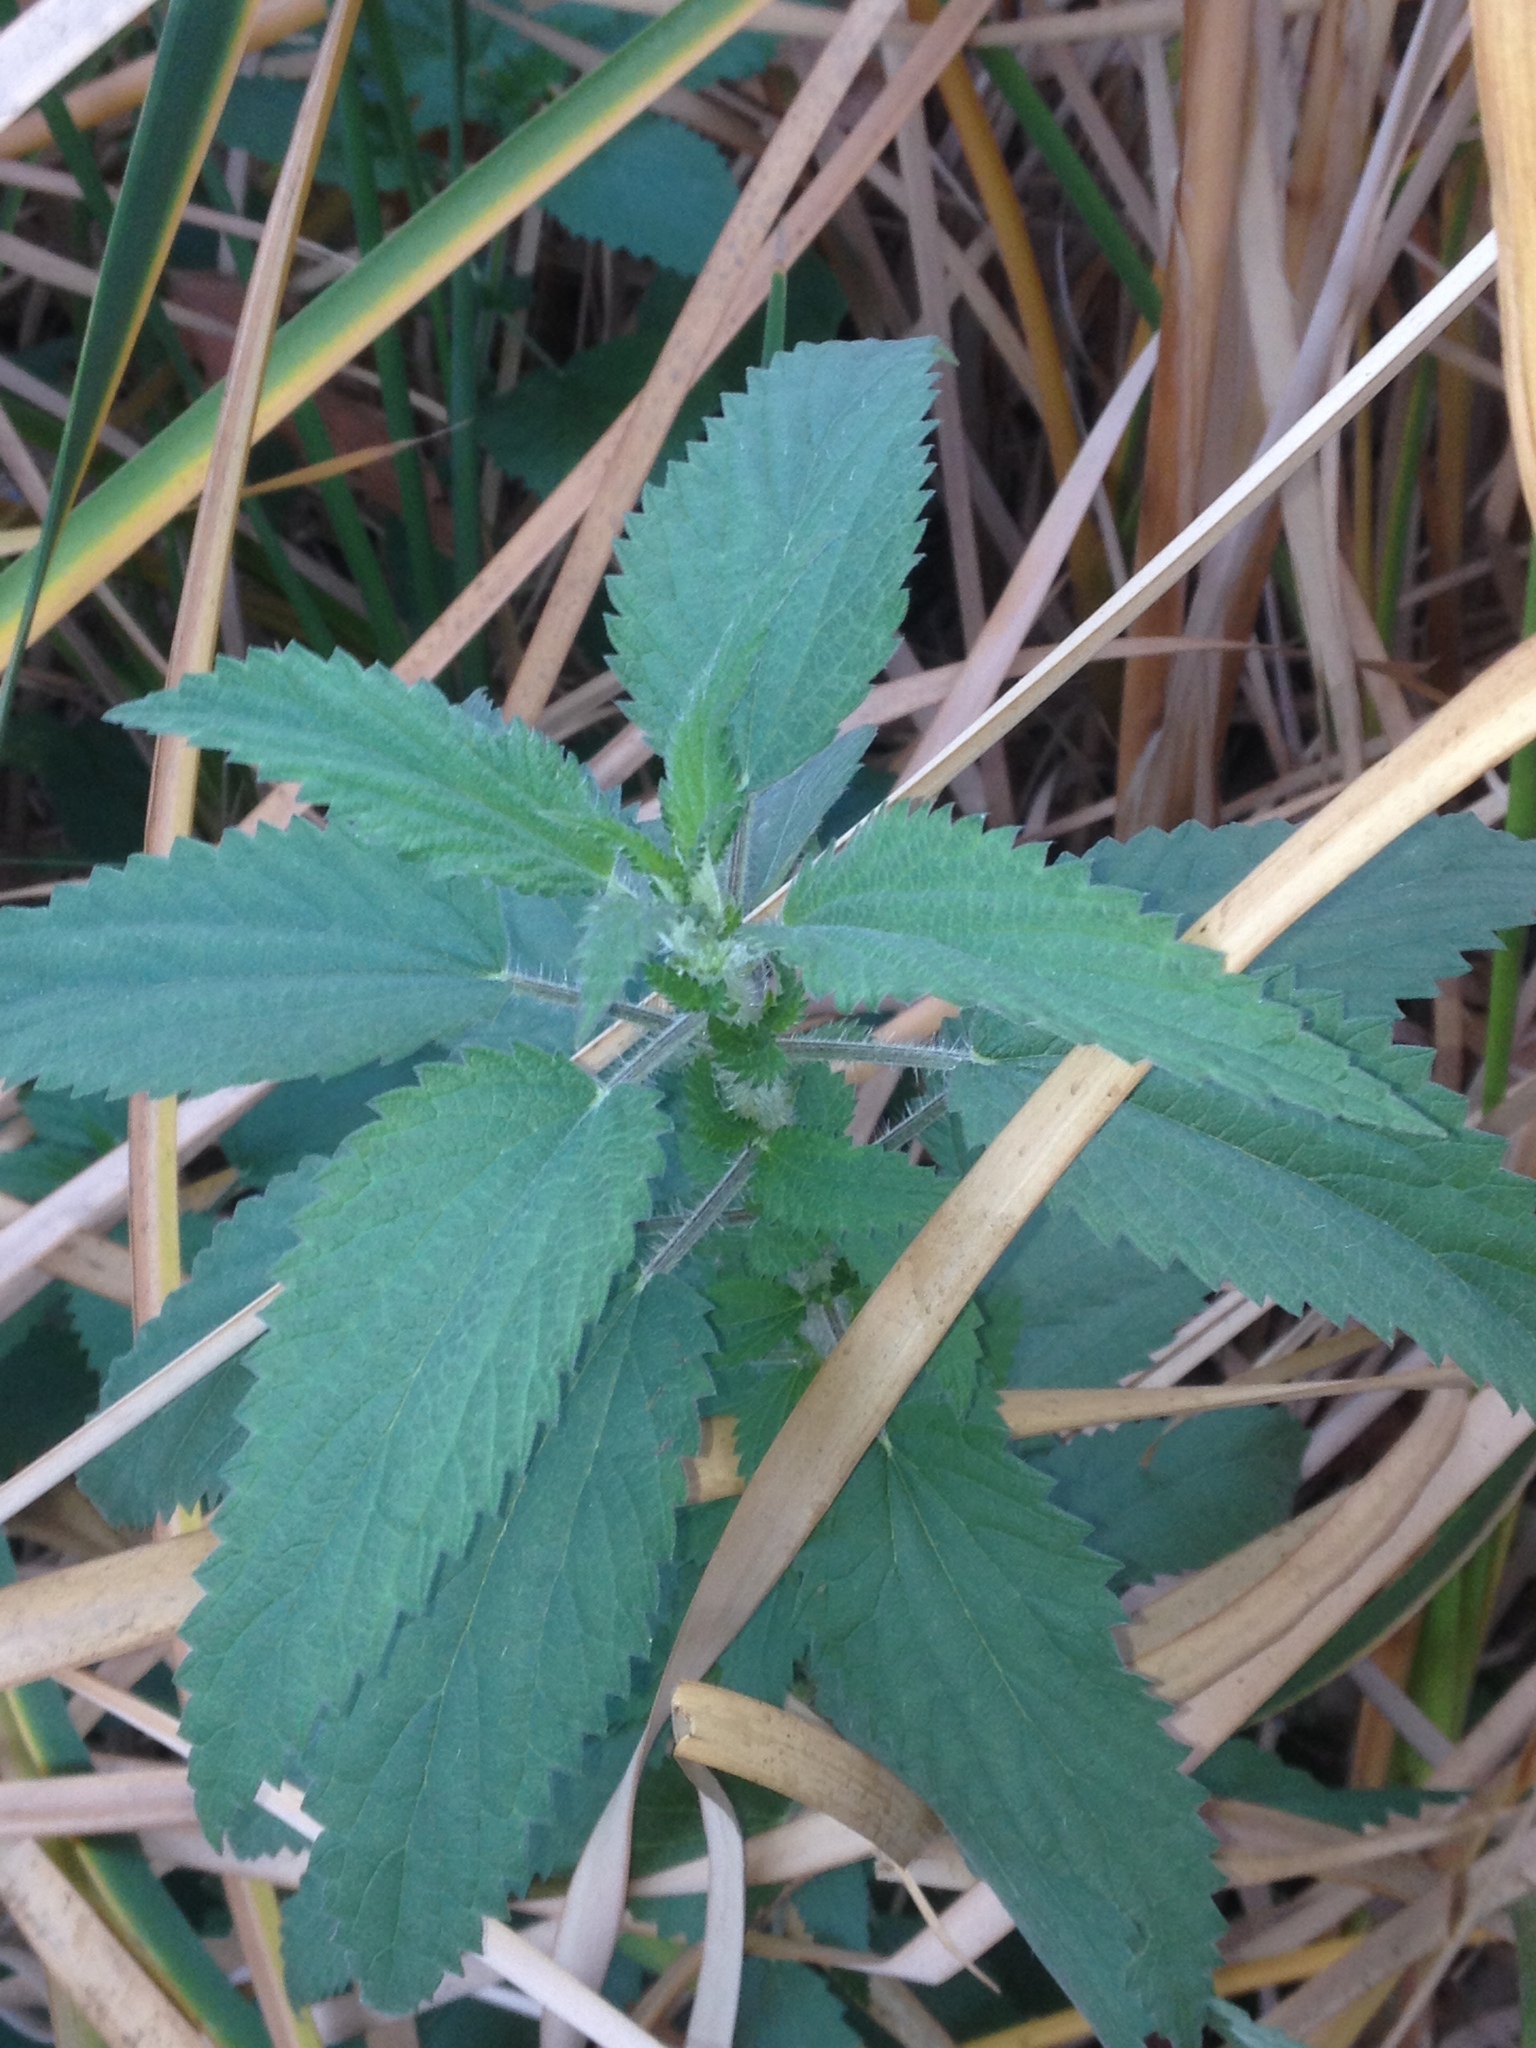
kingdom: Plantae
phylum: Tracheophyta
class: Magnoliopsida
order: Rosales
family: Urticaceae
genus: Urtica
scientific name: Urtica dioica
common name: Common nettle
